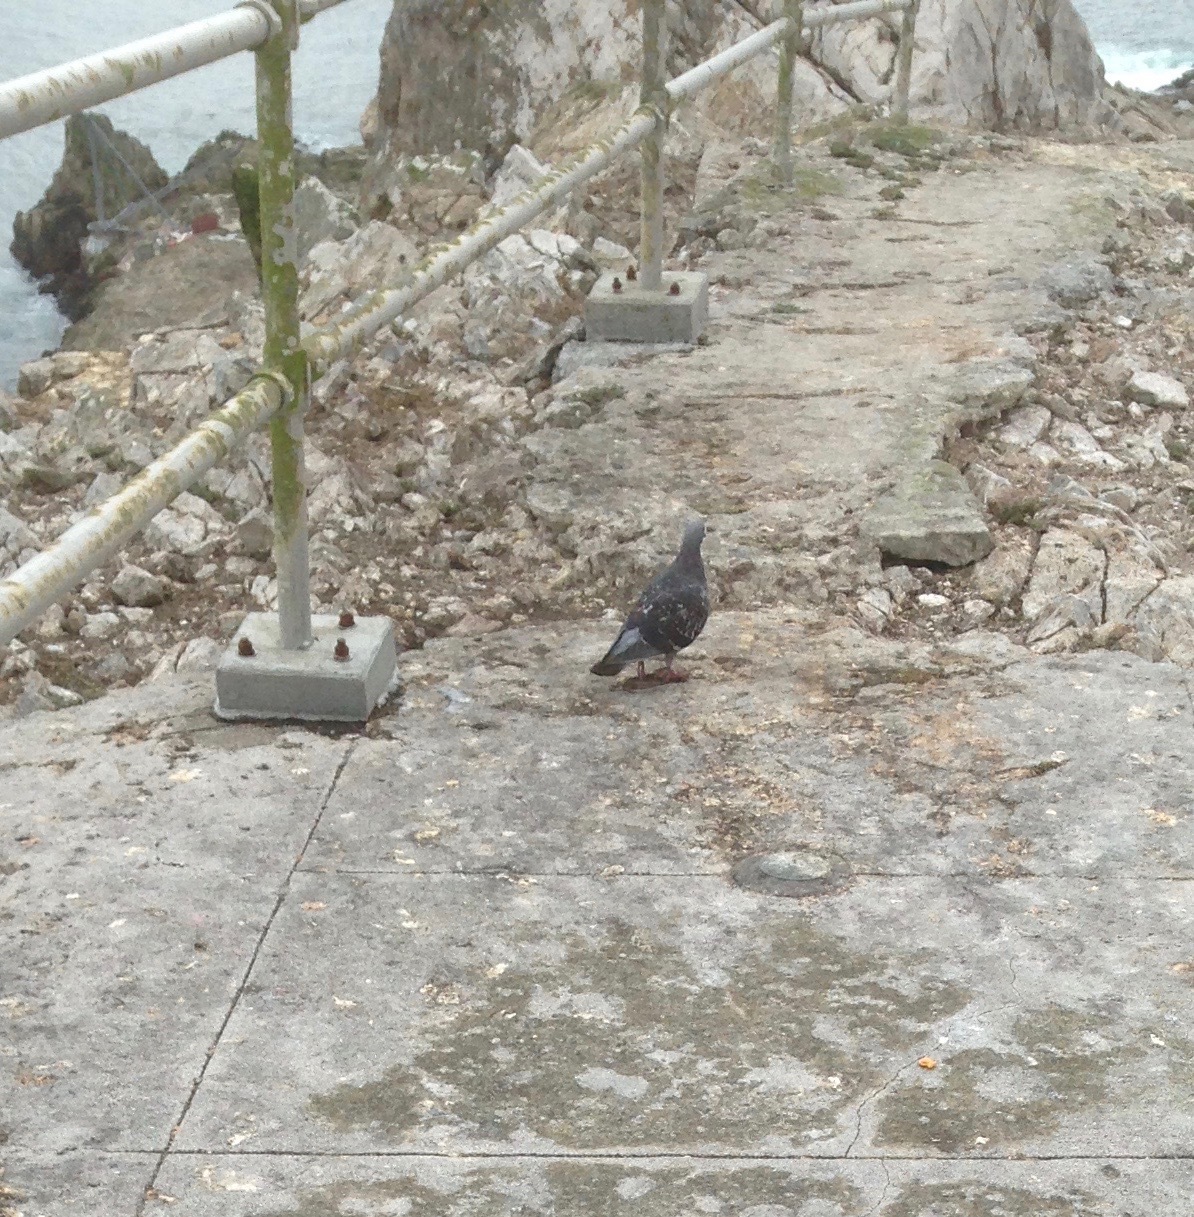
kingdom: Animalia
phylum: Chordata
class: Aves
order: Columbiformes
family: Columbidae
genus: Columba
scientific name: Columba livia
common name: Rock pigeon
